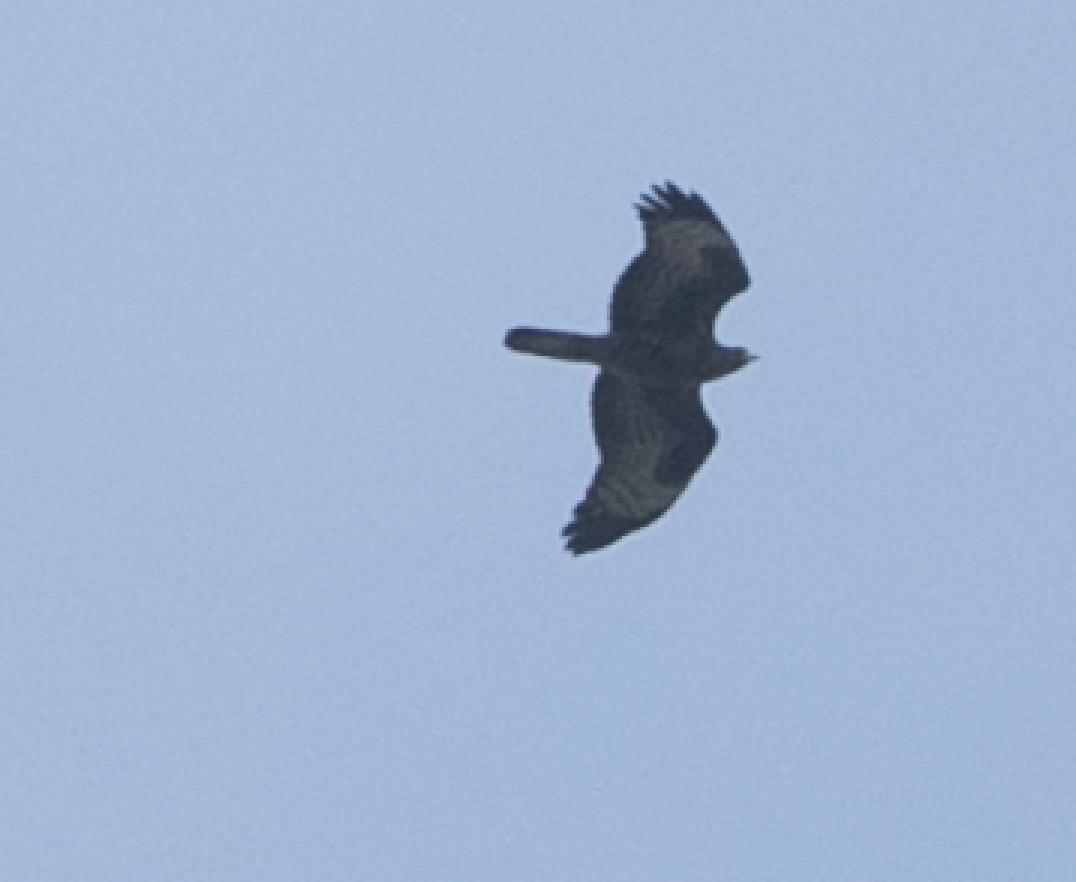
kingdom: Animalia
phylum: Chordata
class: Aves
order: Accipitriformes
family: Accipitridae
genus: Pernis
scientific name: Pernis apivorus
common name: European honey buzzard
